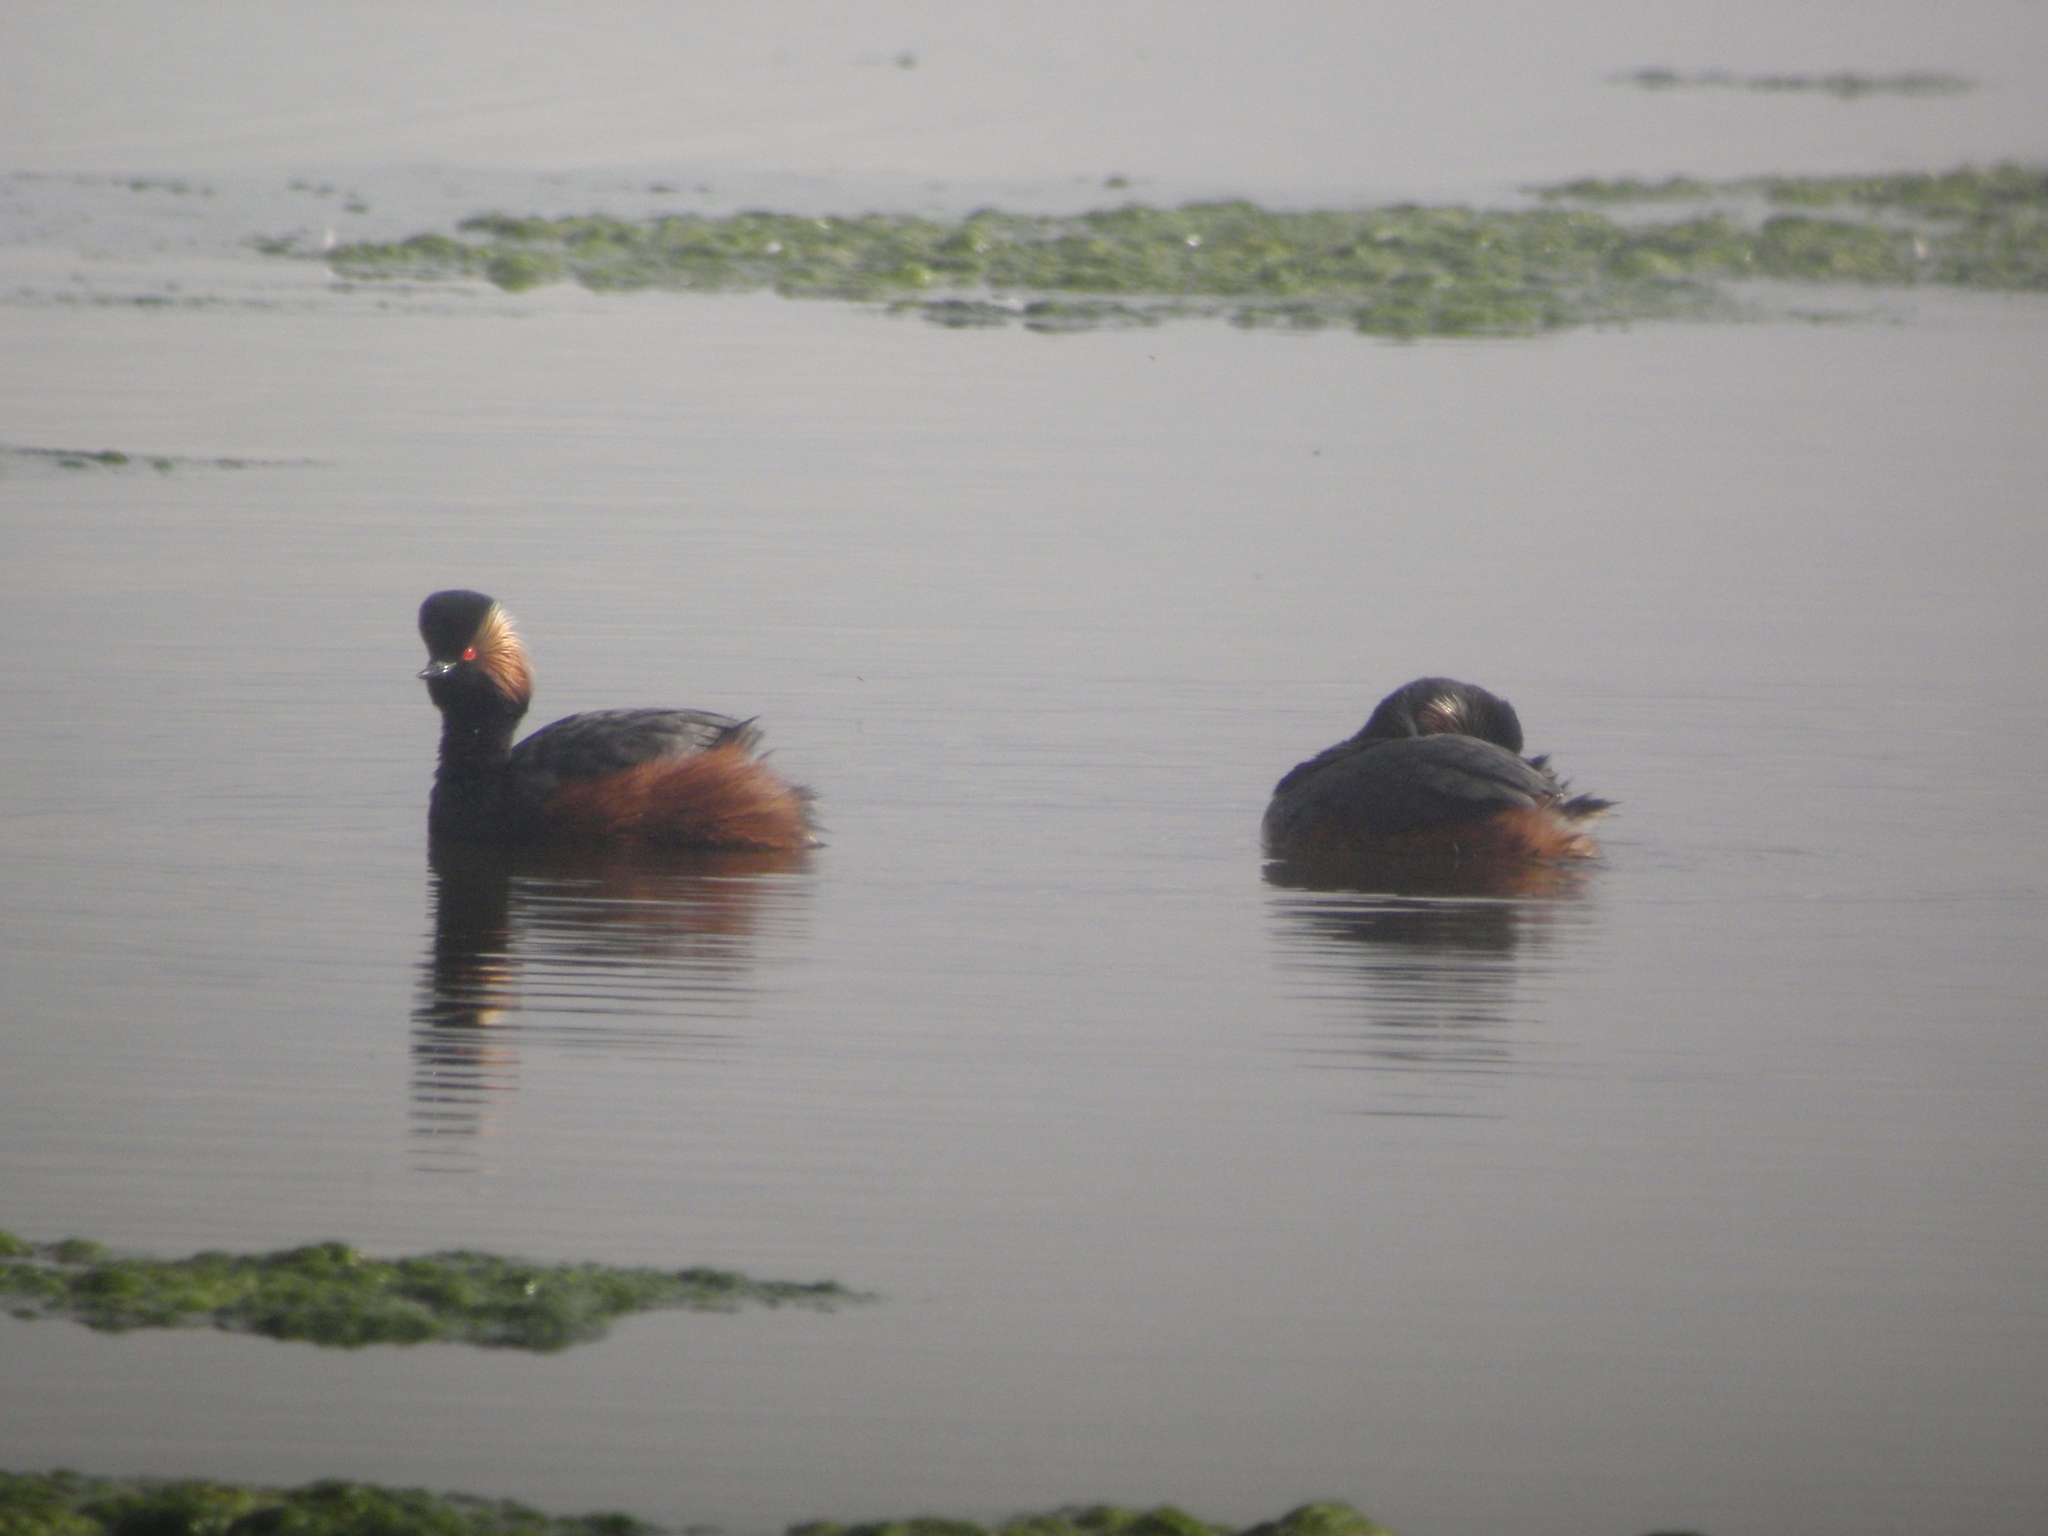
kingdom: Animalia
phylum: Chordata
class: Aves
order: Podicipediformes
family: Podicipedidae
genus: Podiceps
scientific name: Podiceps nigricollis
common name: Black-necked grebe
